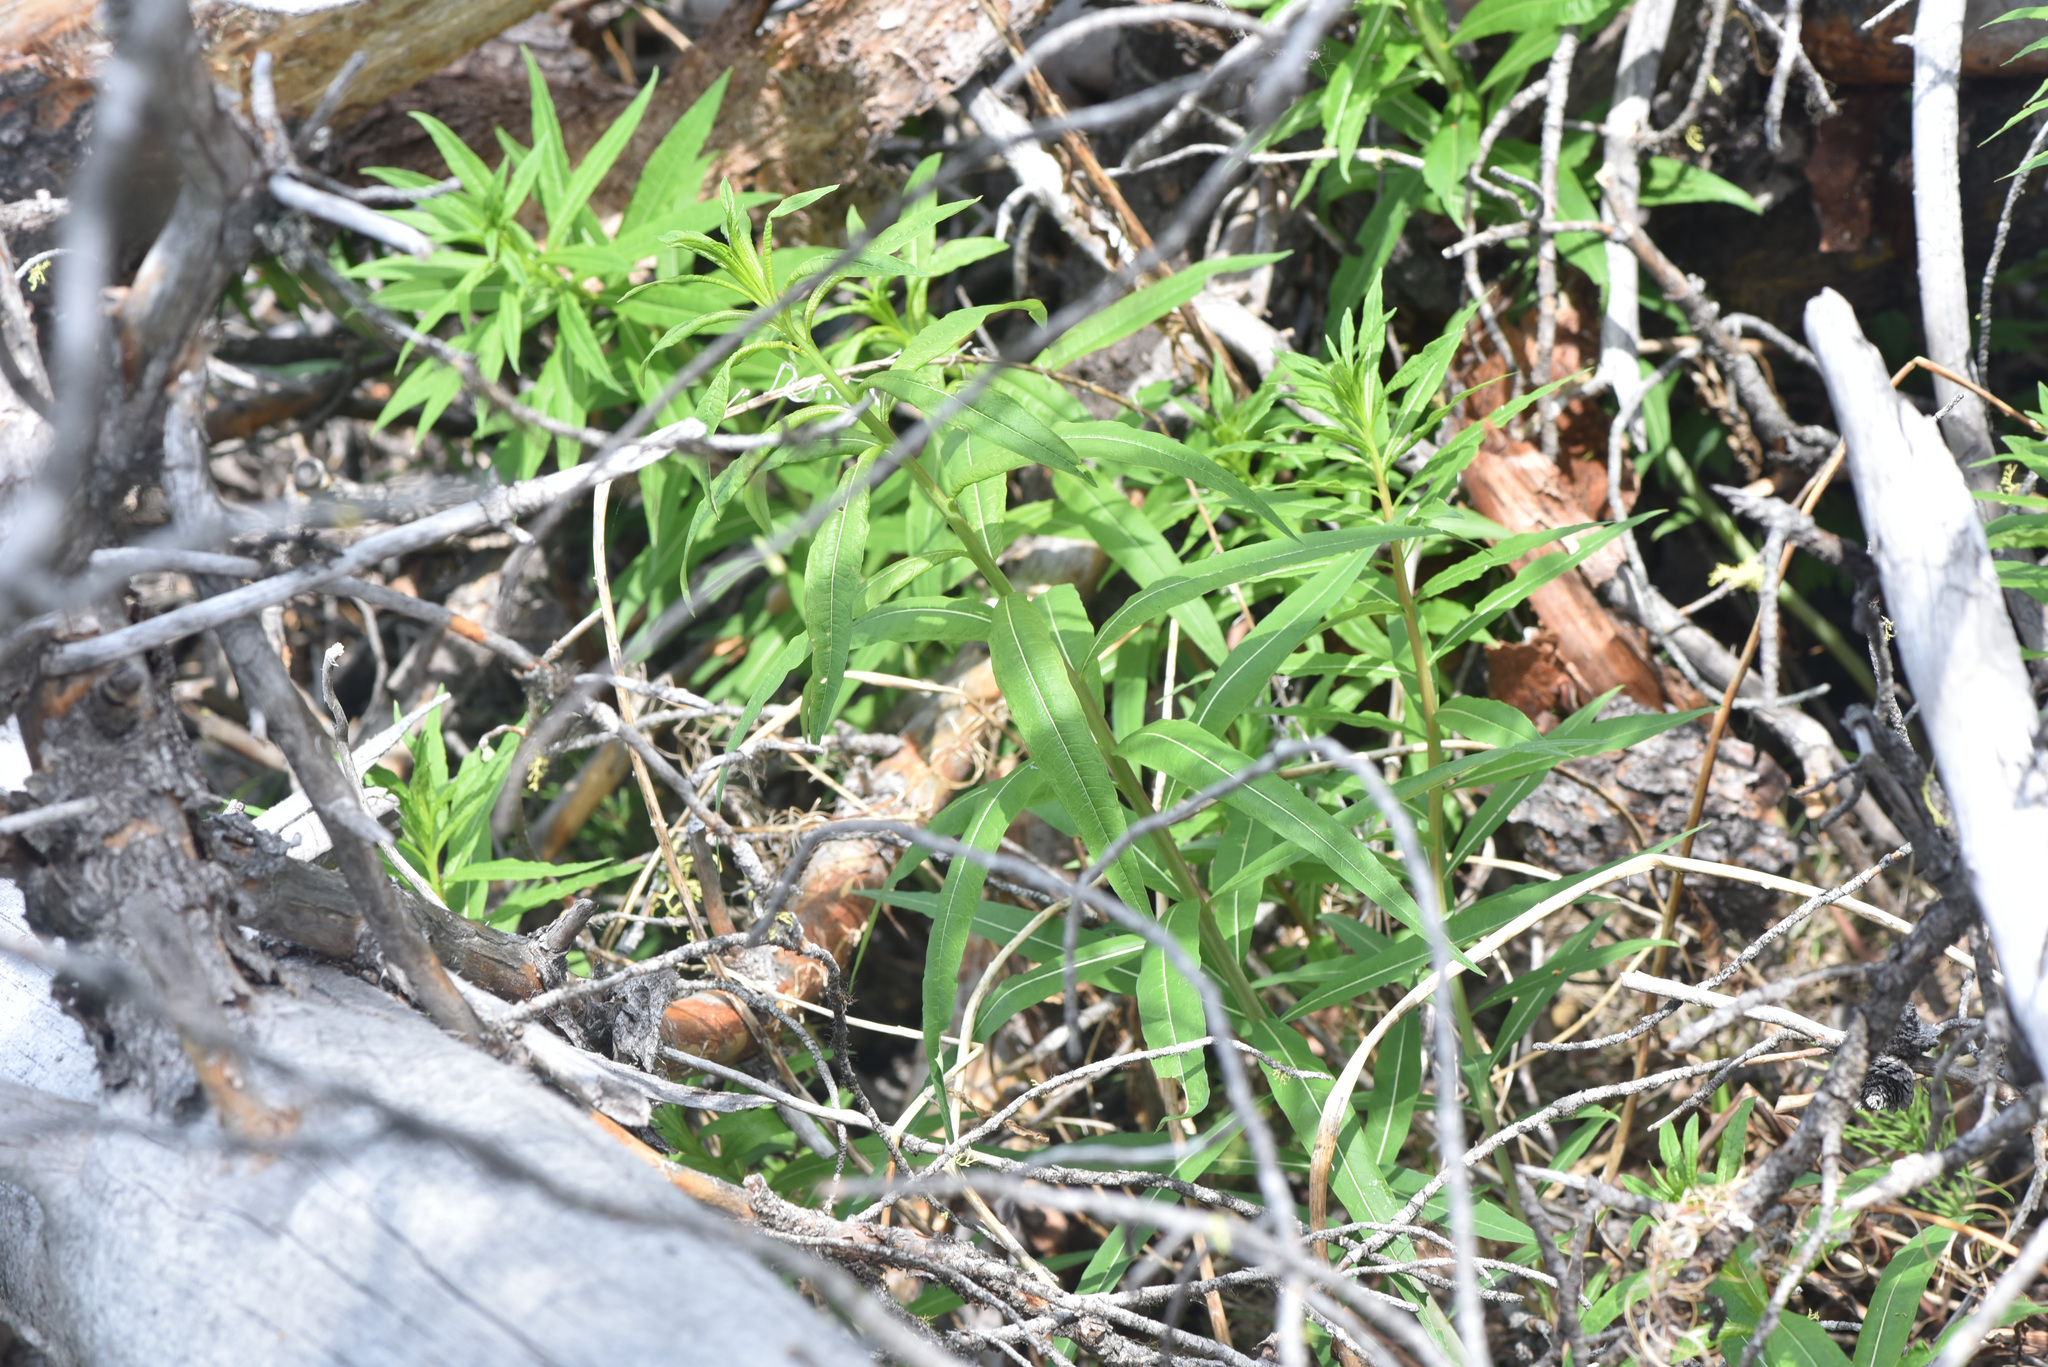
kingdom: Plantae
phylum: Tracheophyta
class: Magnoliopsida
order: Myrtales
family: Onagraceae
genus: Chamaenerion
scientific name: Chamaenerion angustifolium
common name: Fireweed
